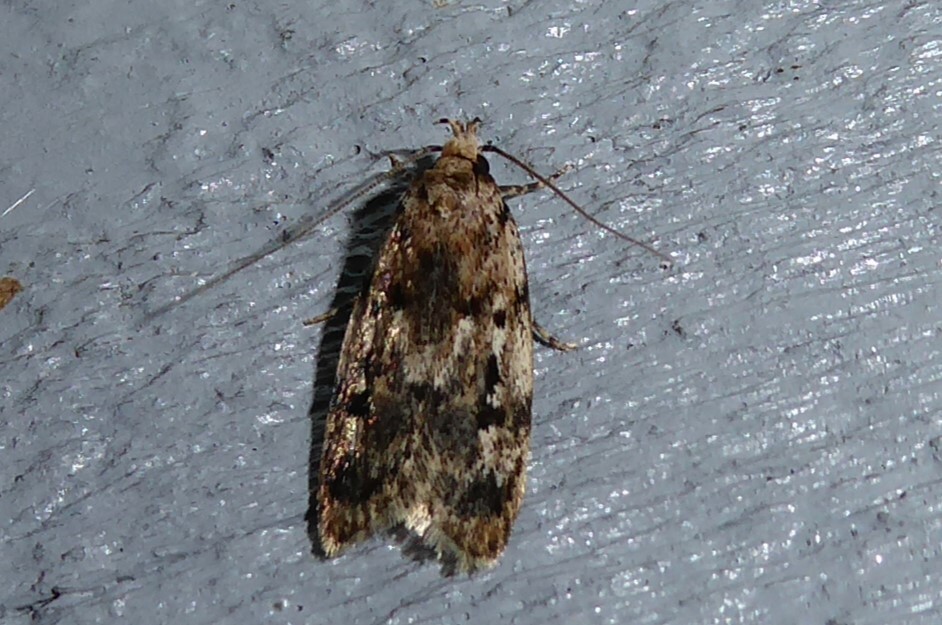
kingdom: Animalia
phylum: Arthropoda
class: Insecta
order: Lepidoptera
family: Oecophoridae
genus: Barea
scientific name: Barea exarcha
